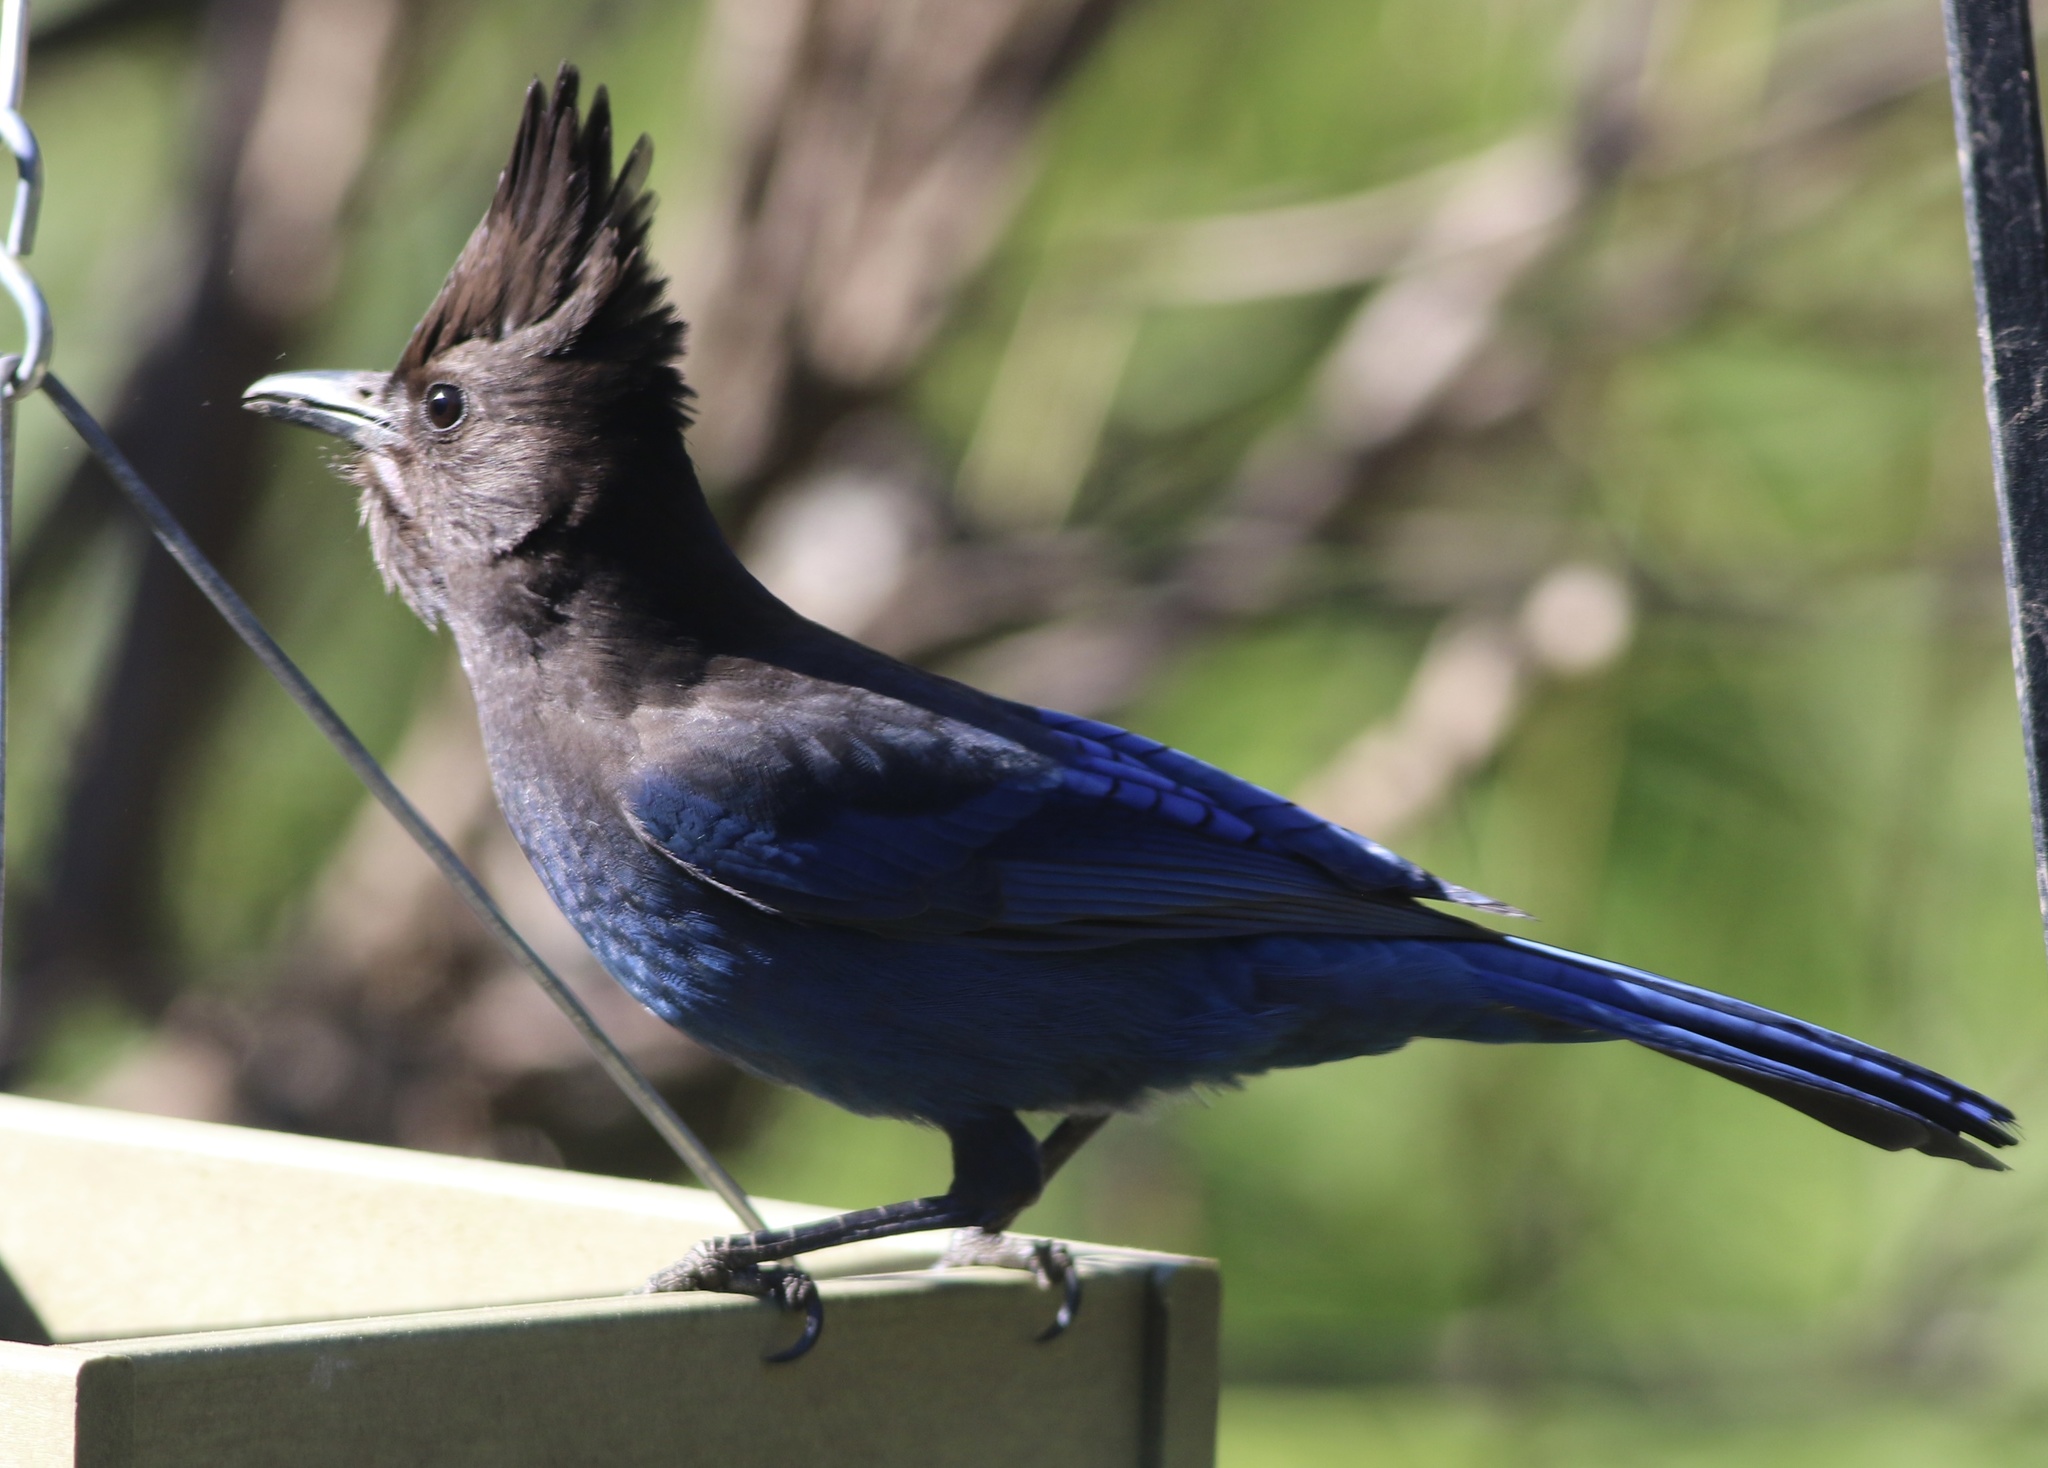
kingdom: Animalia
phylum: Chordata
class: Aves
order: Passeriformes
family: Corvidae
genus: Cyanocitta
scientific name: Cyanocitta stelleri
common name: Steller's jay
